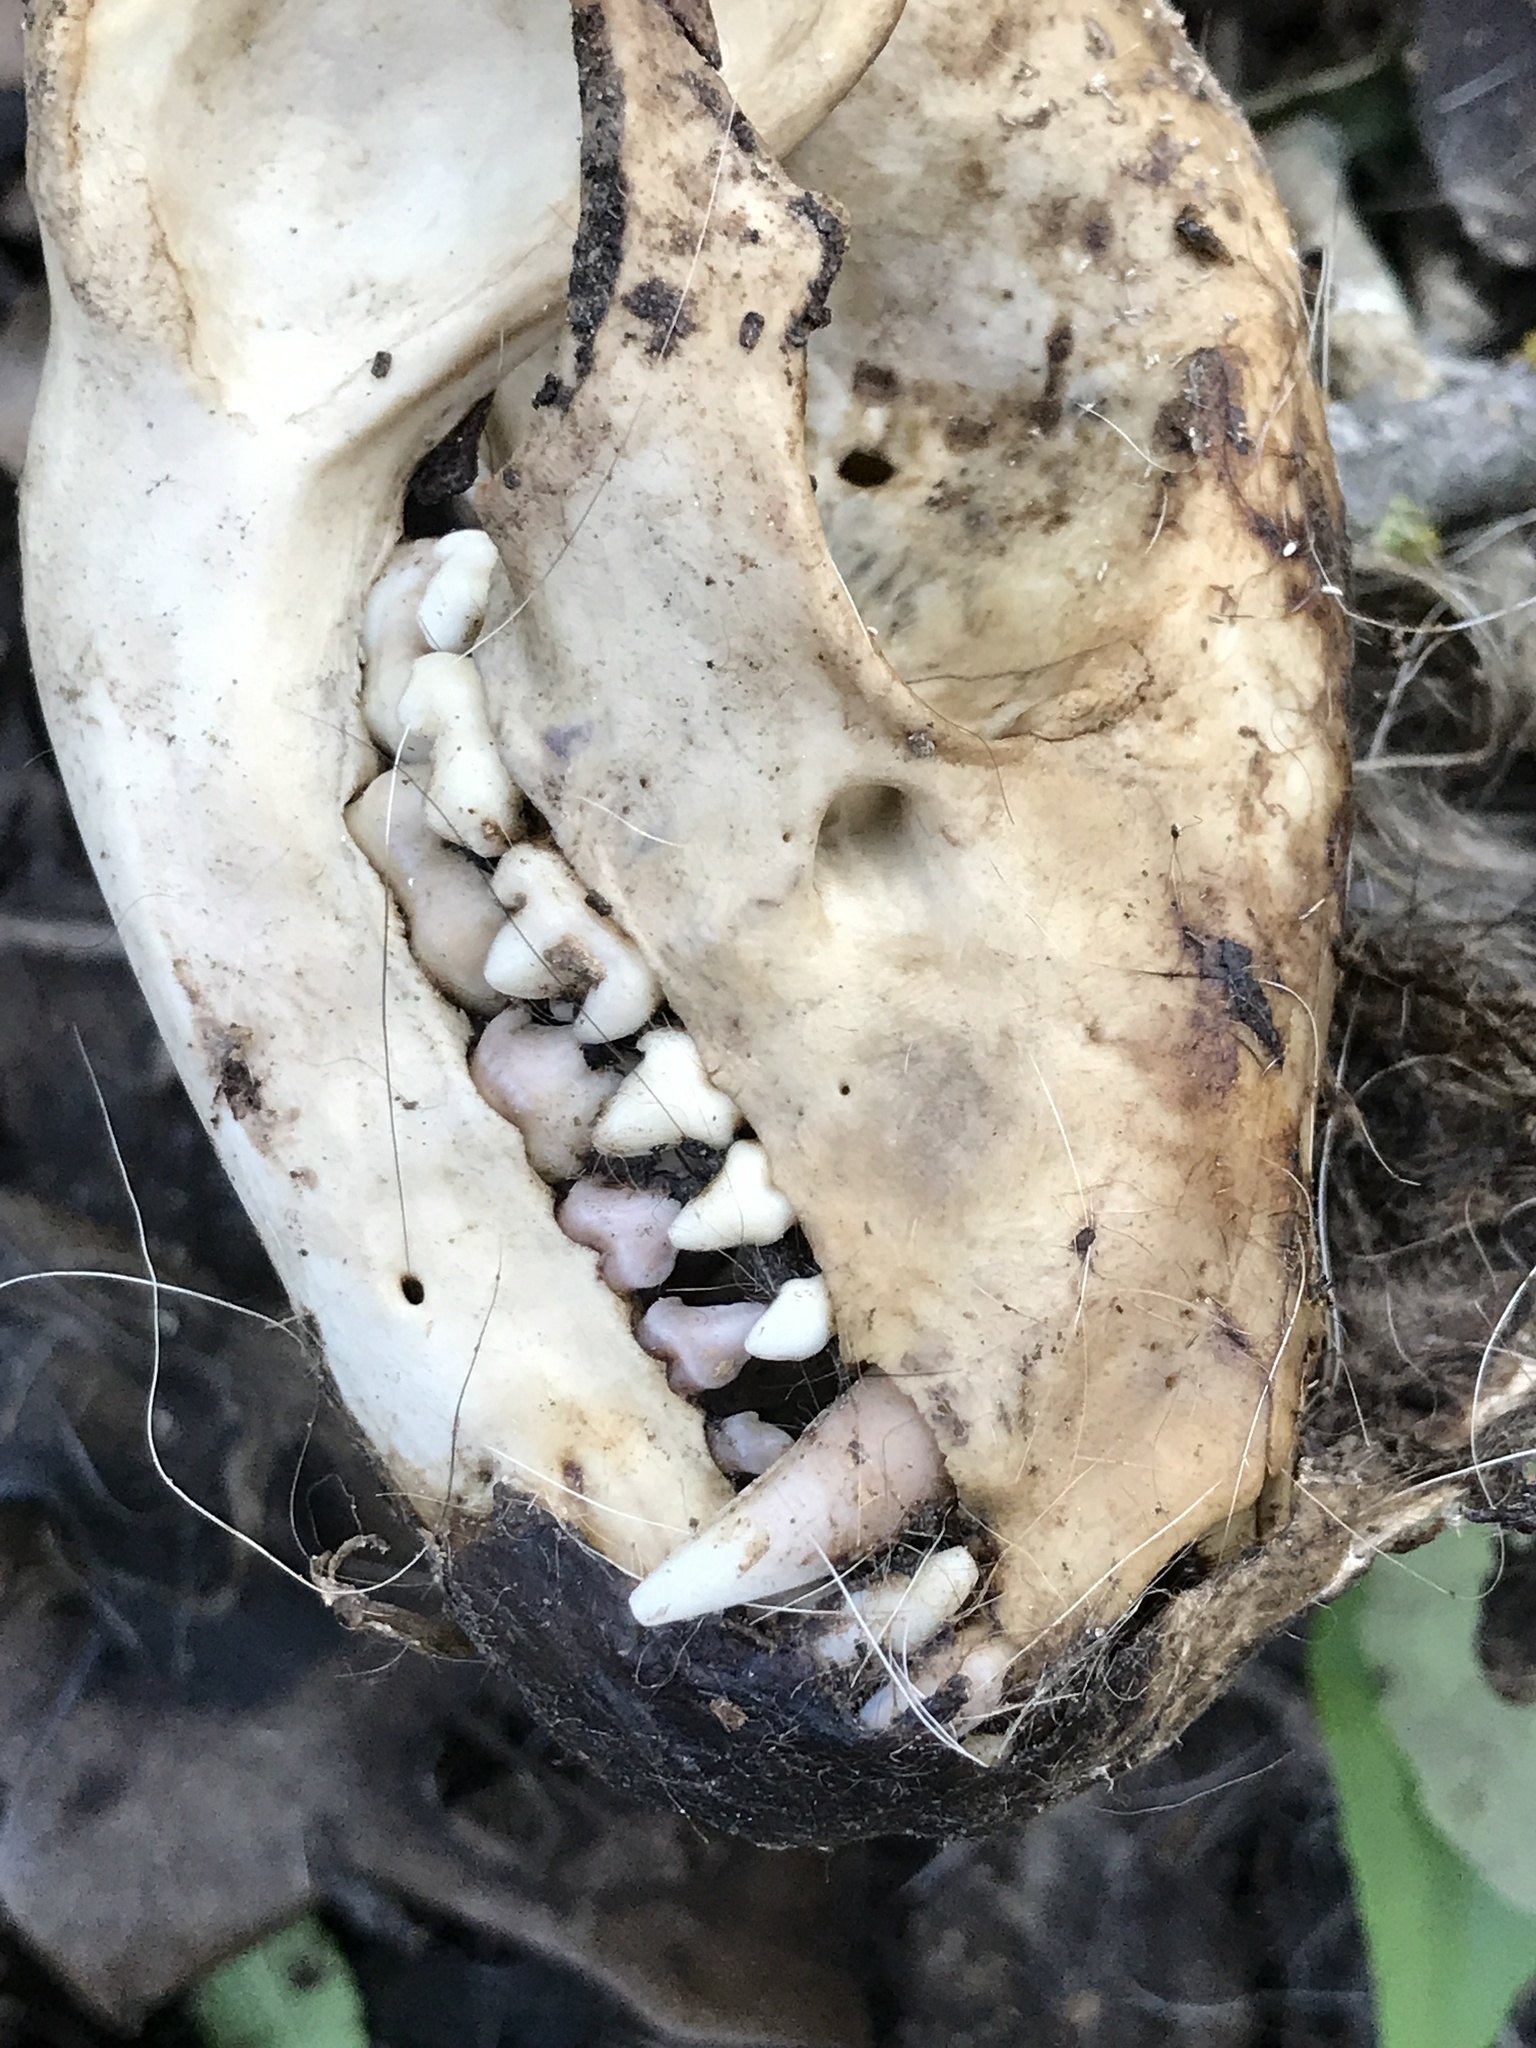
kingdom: Animalia
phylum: Chordata
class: Mammalia
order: Carnivora
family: Procyonidae
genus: Procyon
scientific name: Procyon lotor
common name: Raccoon
